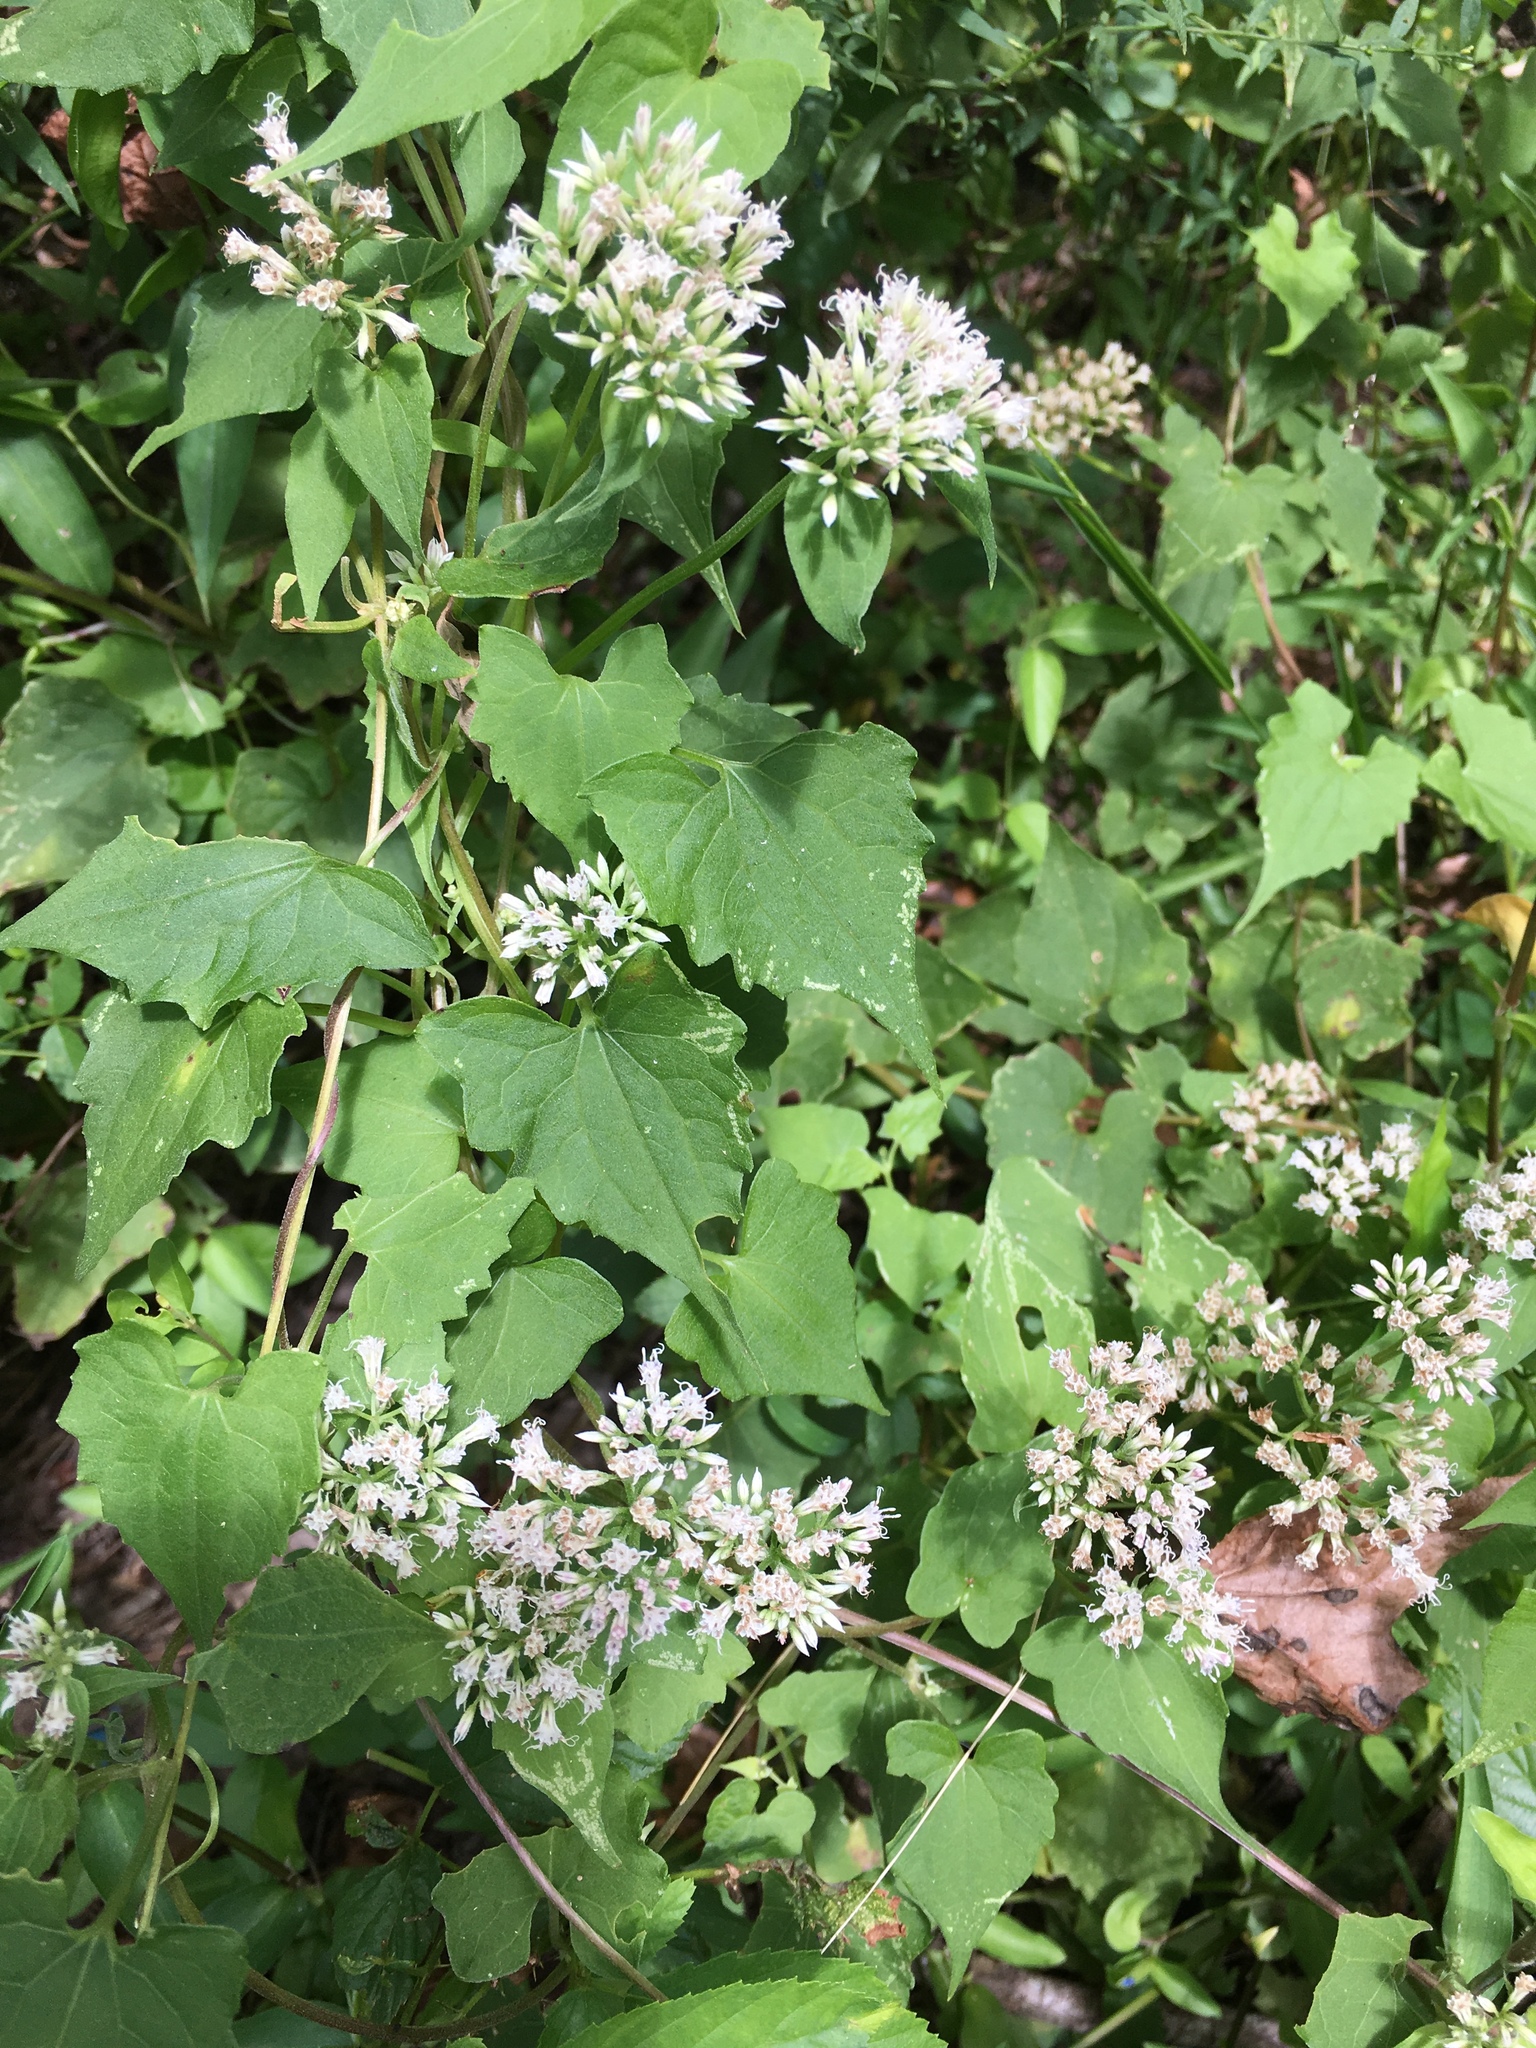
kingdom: Plantae
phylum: Tracheophyta
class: Magnoliopsida
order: Asterales
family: Asteraceae
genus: Mikania
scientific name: Mikania scandens
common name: Climbing hempvine
